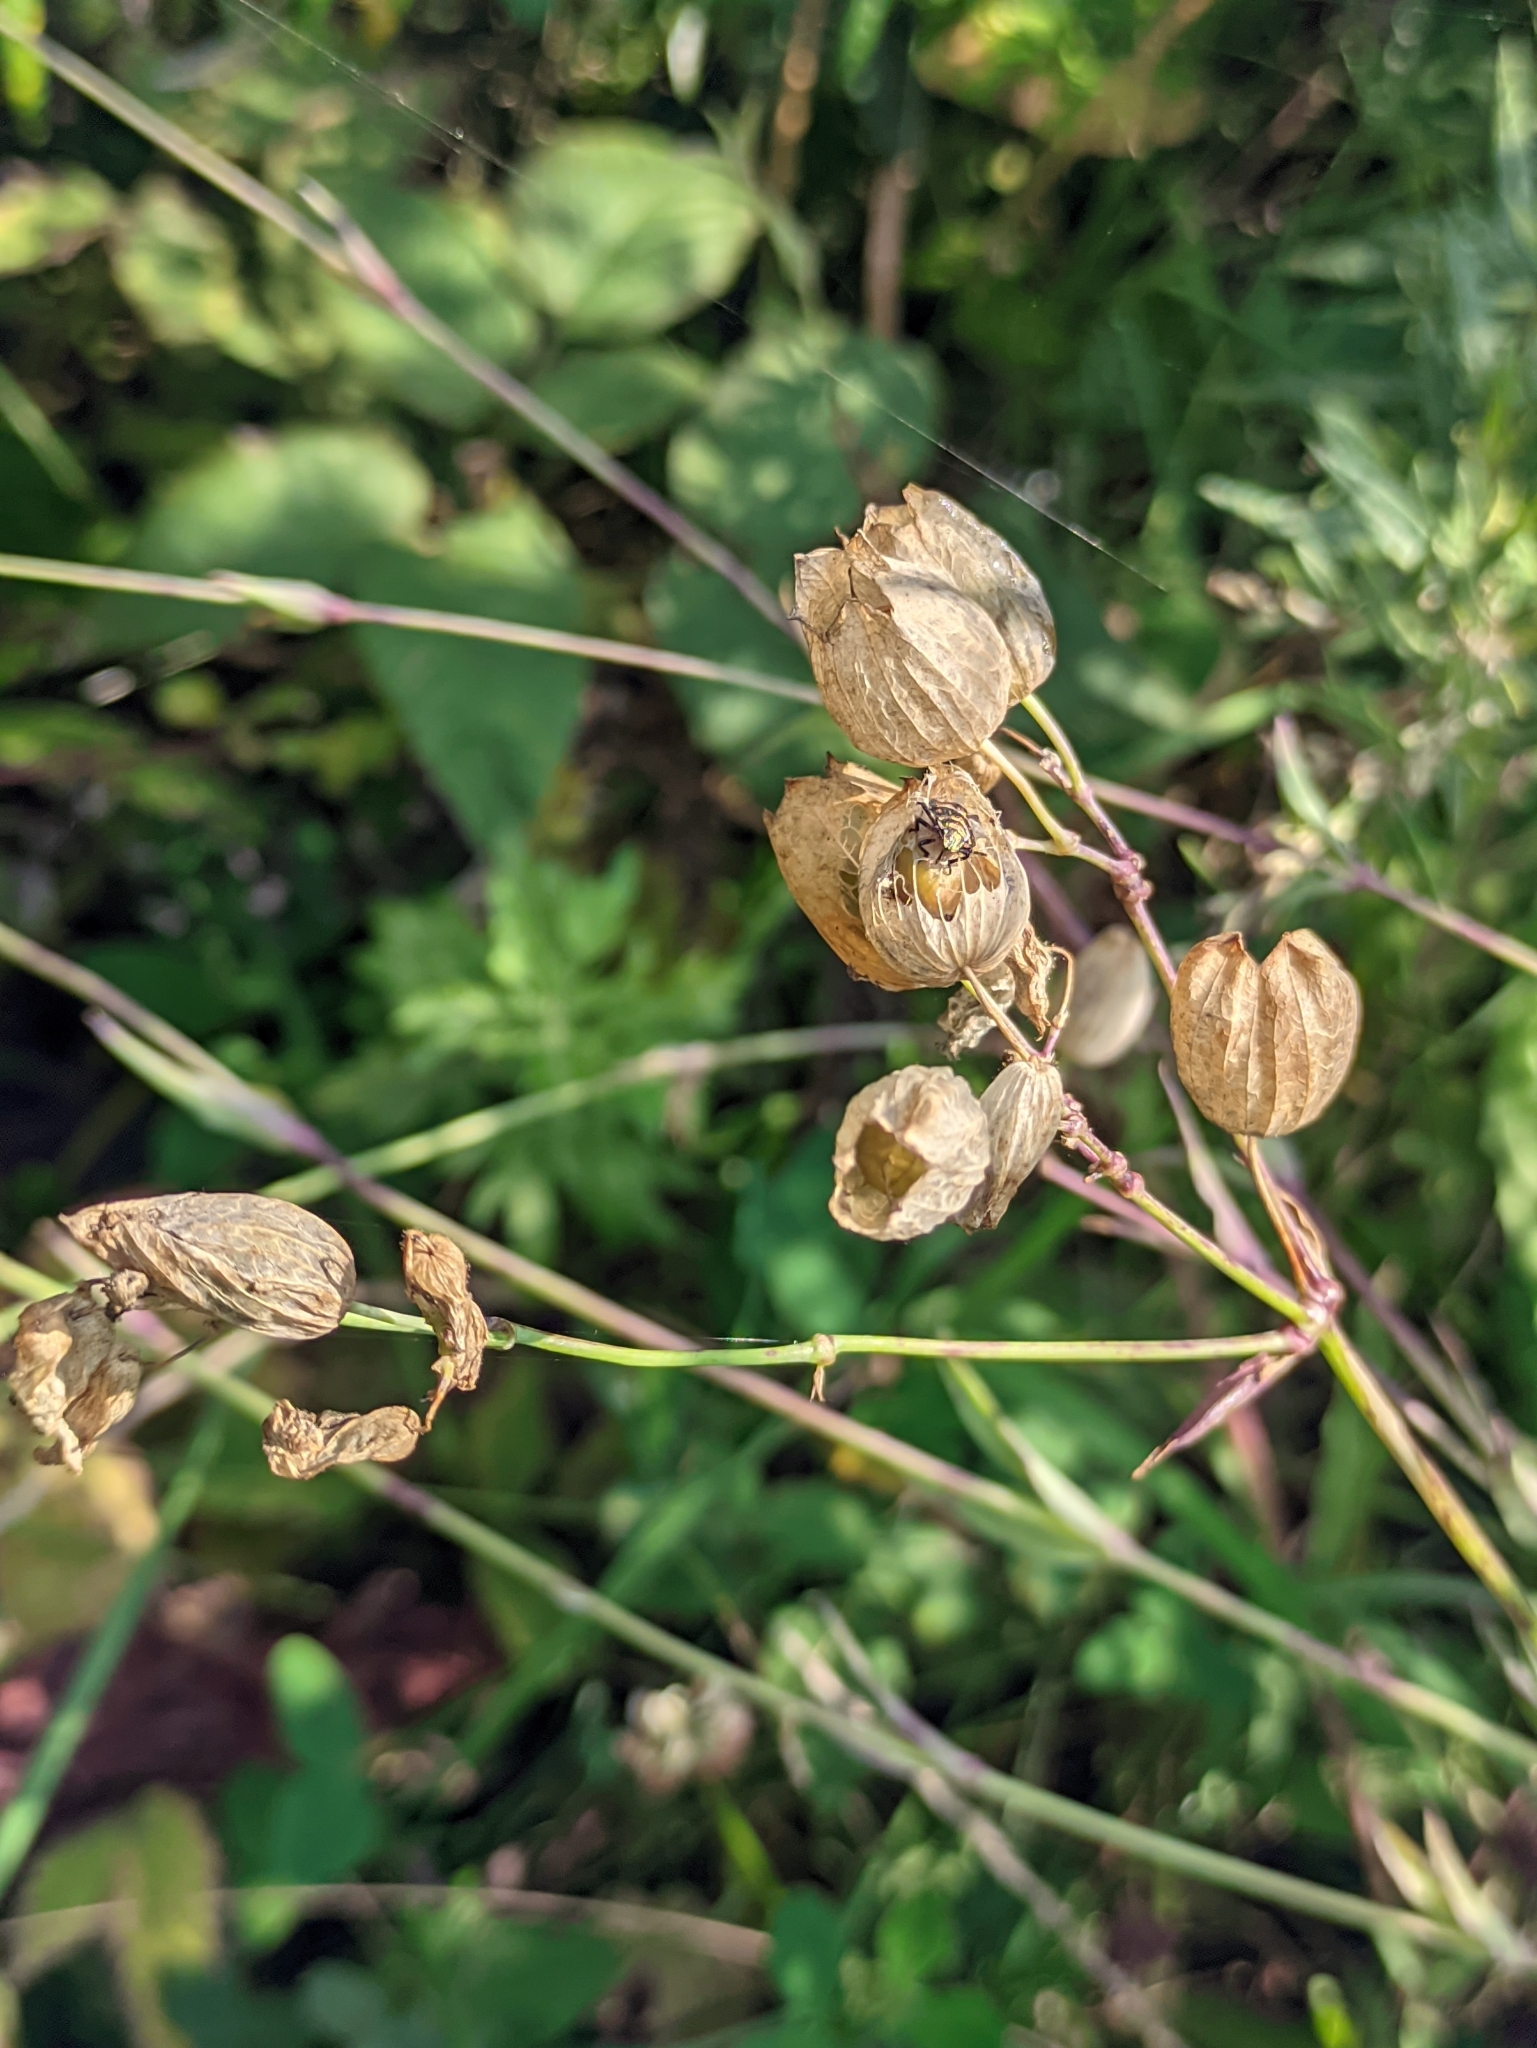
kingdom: Plantae
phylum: Tracheophyta
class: Magnoliopsida
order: Caryophyllales
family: Caryophyllaceae
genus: Silene
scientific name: Silene vulgaris
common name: Bladder campion
